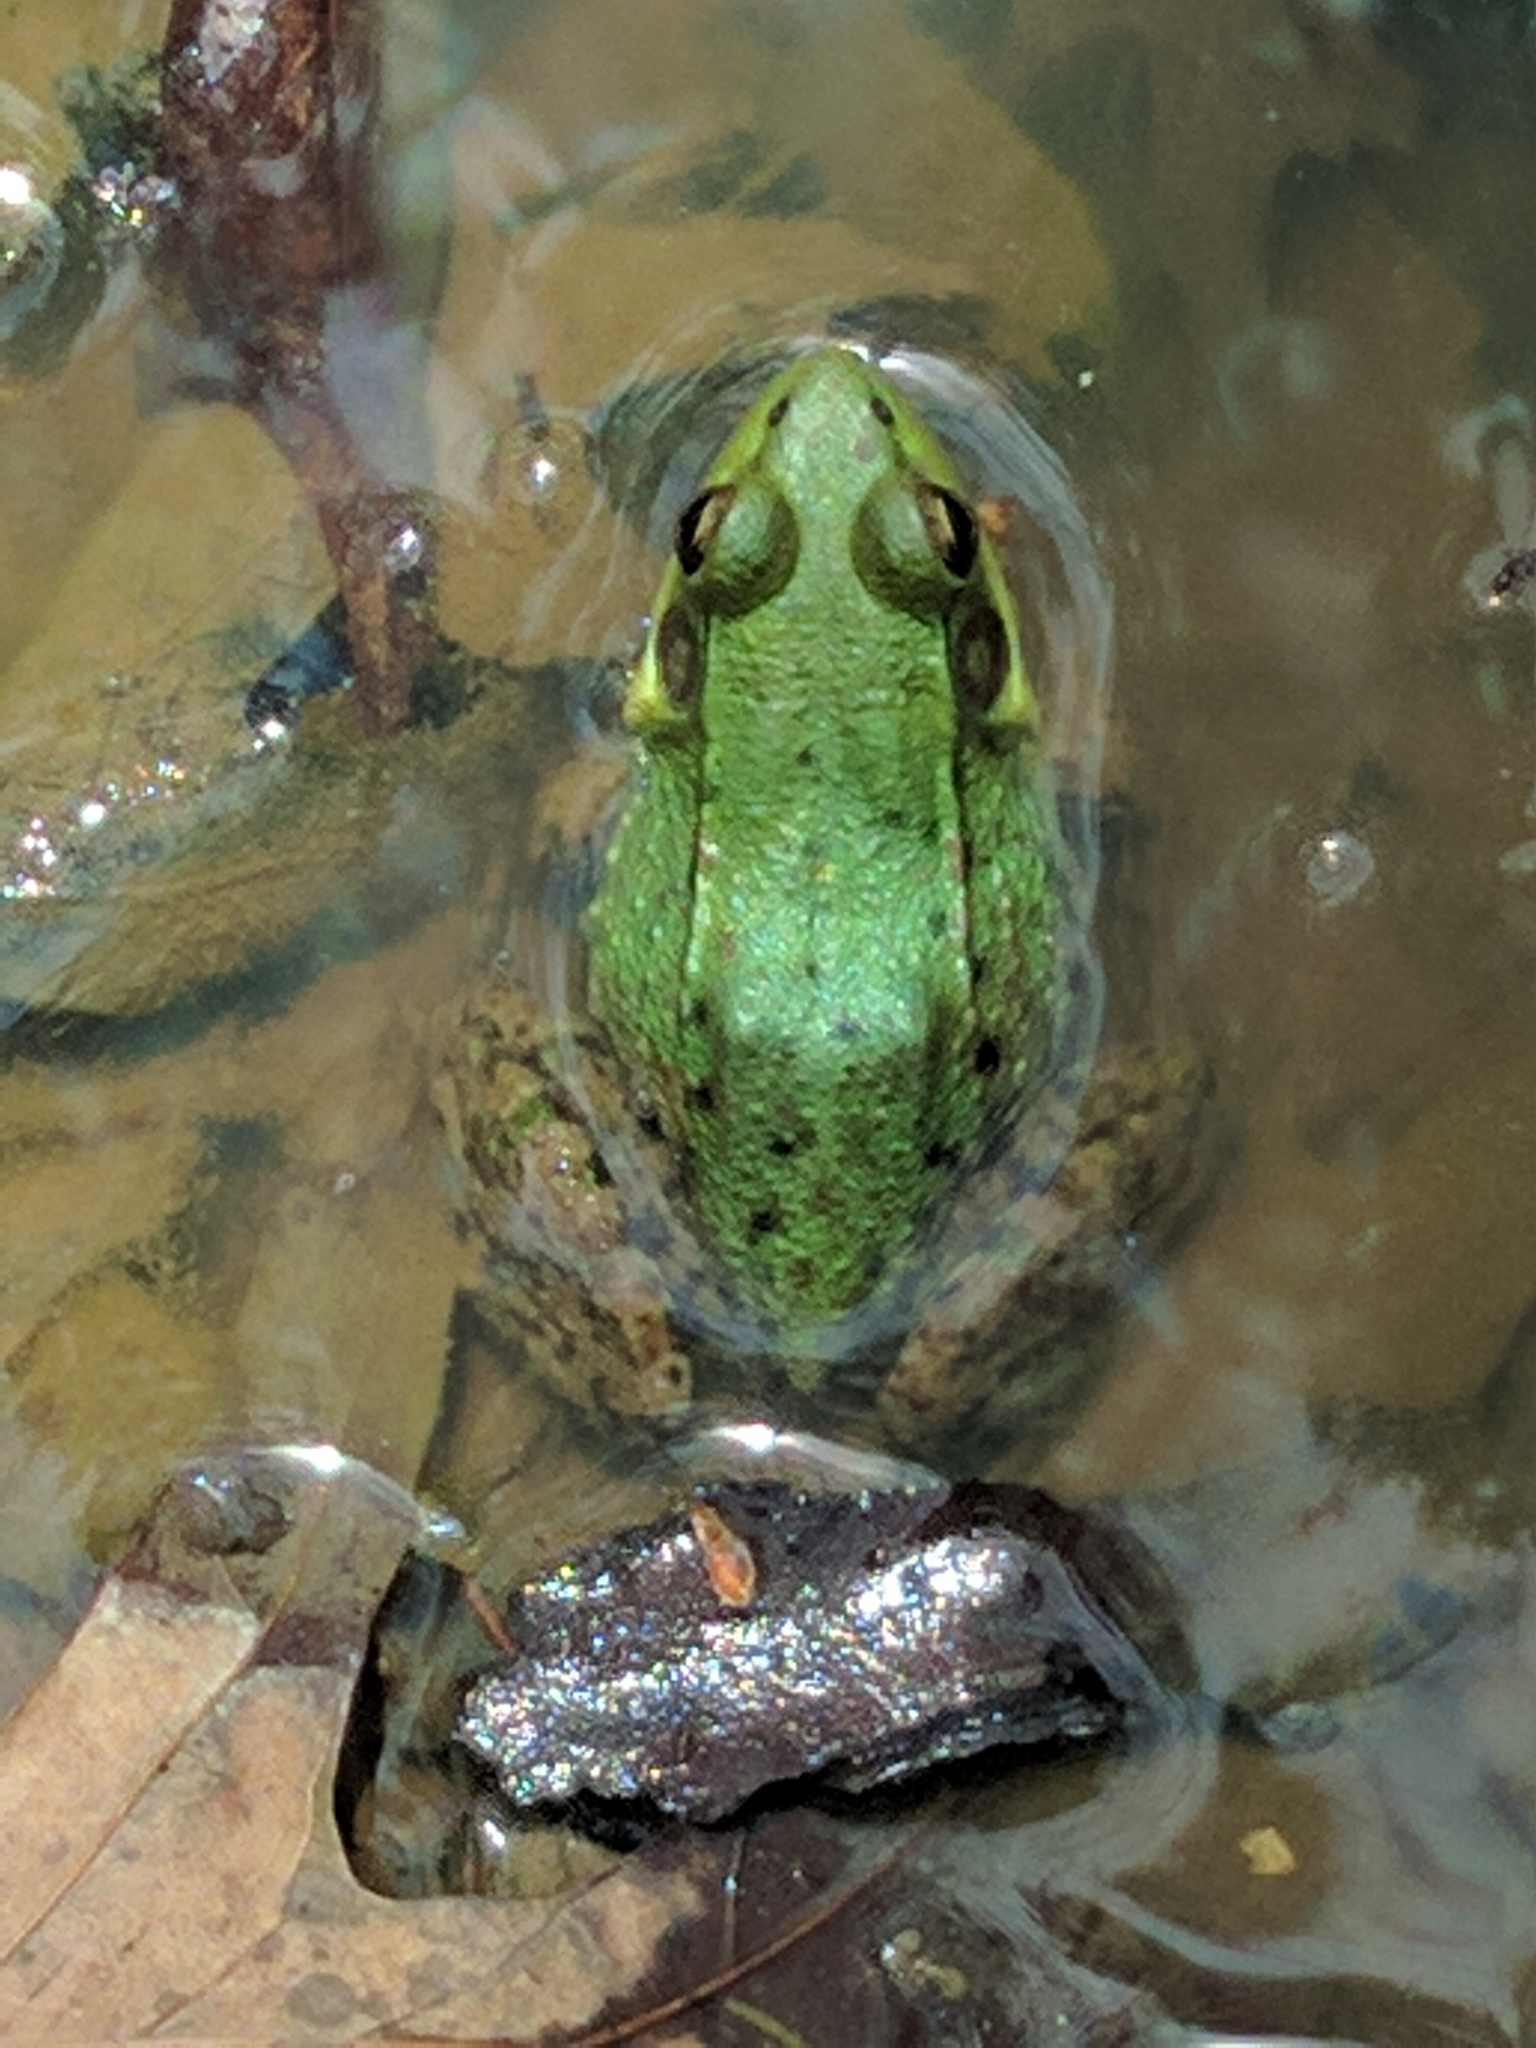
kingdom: Animalia
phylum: Chordata
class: Amphibia
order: Anura
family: Ranidae
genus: Lithobates
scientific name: Lithobates clamitans
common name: Green frog
